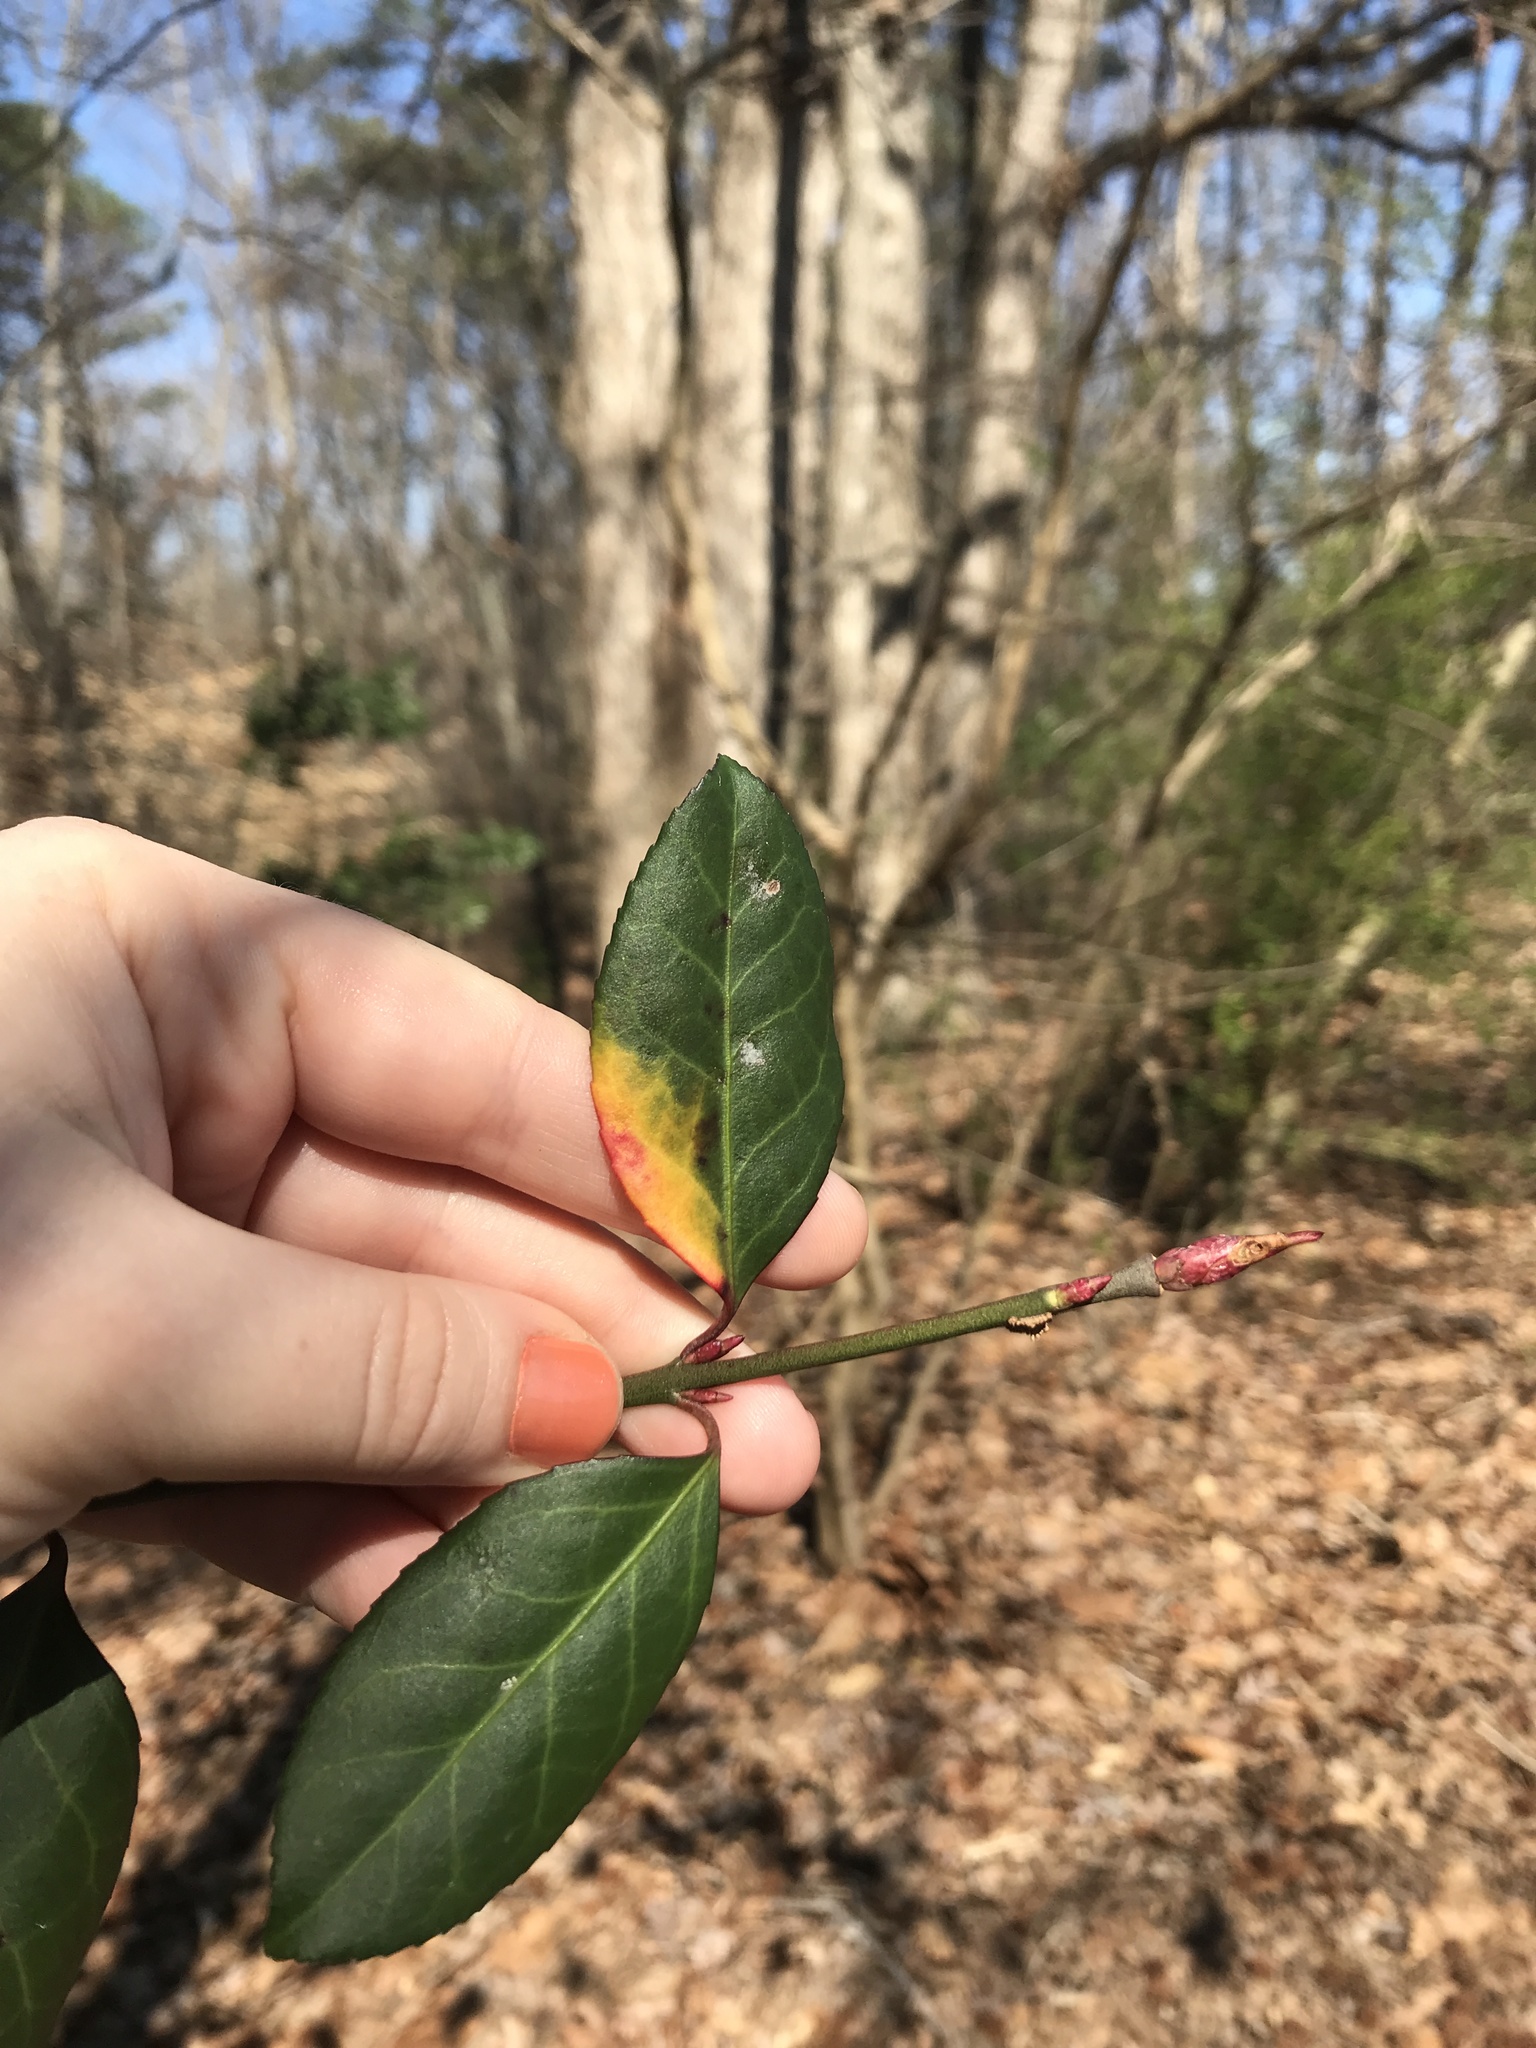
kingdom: Plantae
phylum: Tracheophyta
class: Magnoliopsida
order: Celastrales
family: Celastraceae
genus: Euonymus
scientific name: Euonymus fortunei
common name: Climbing euonymus
